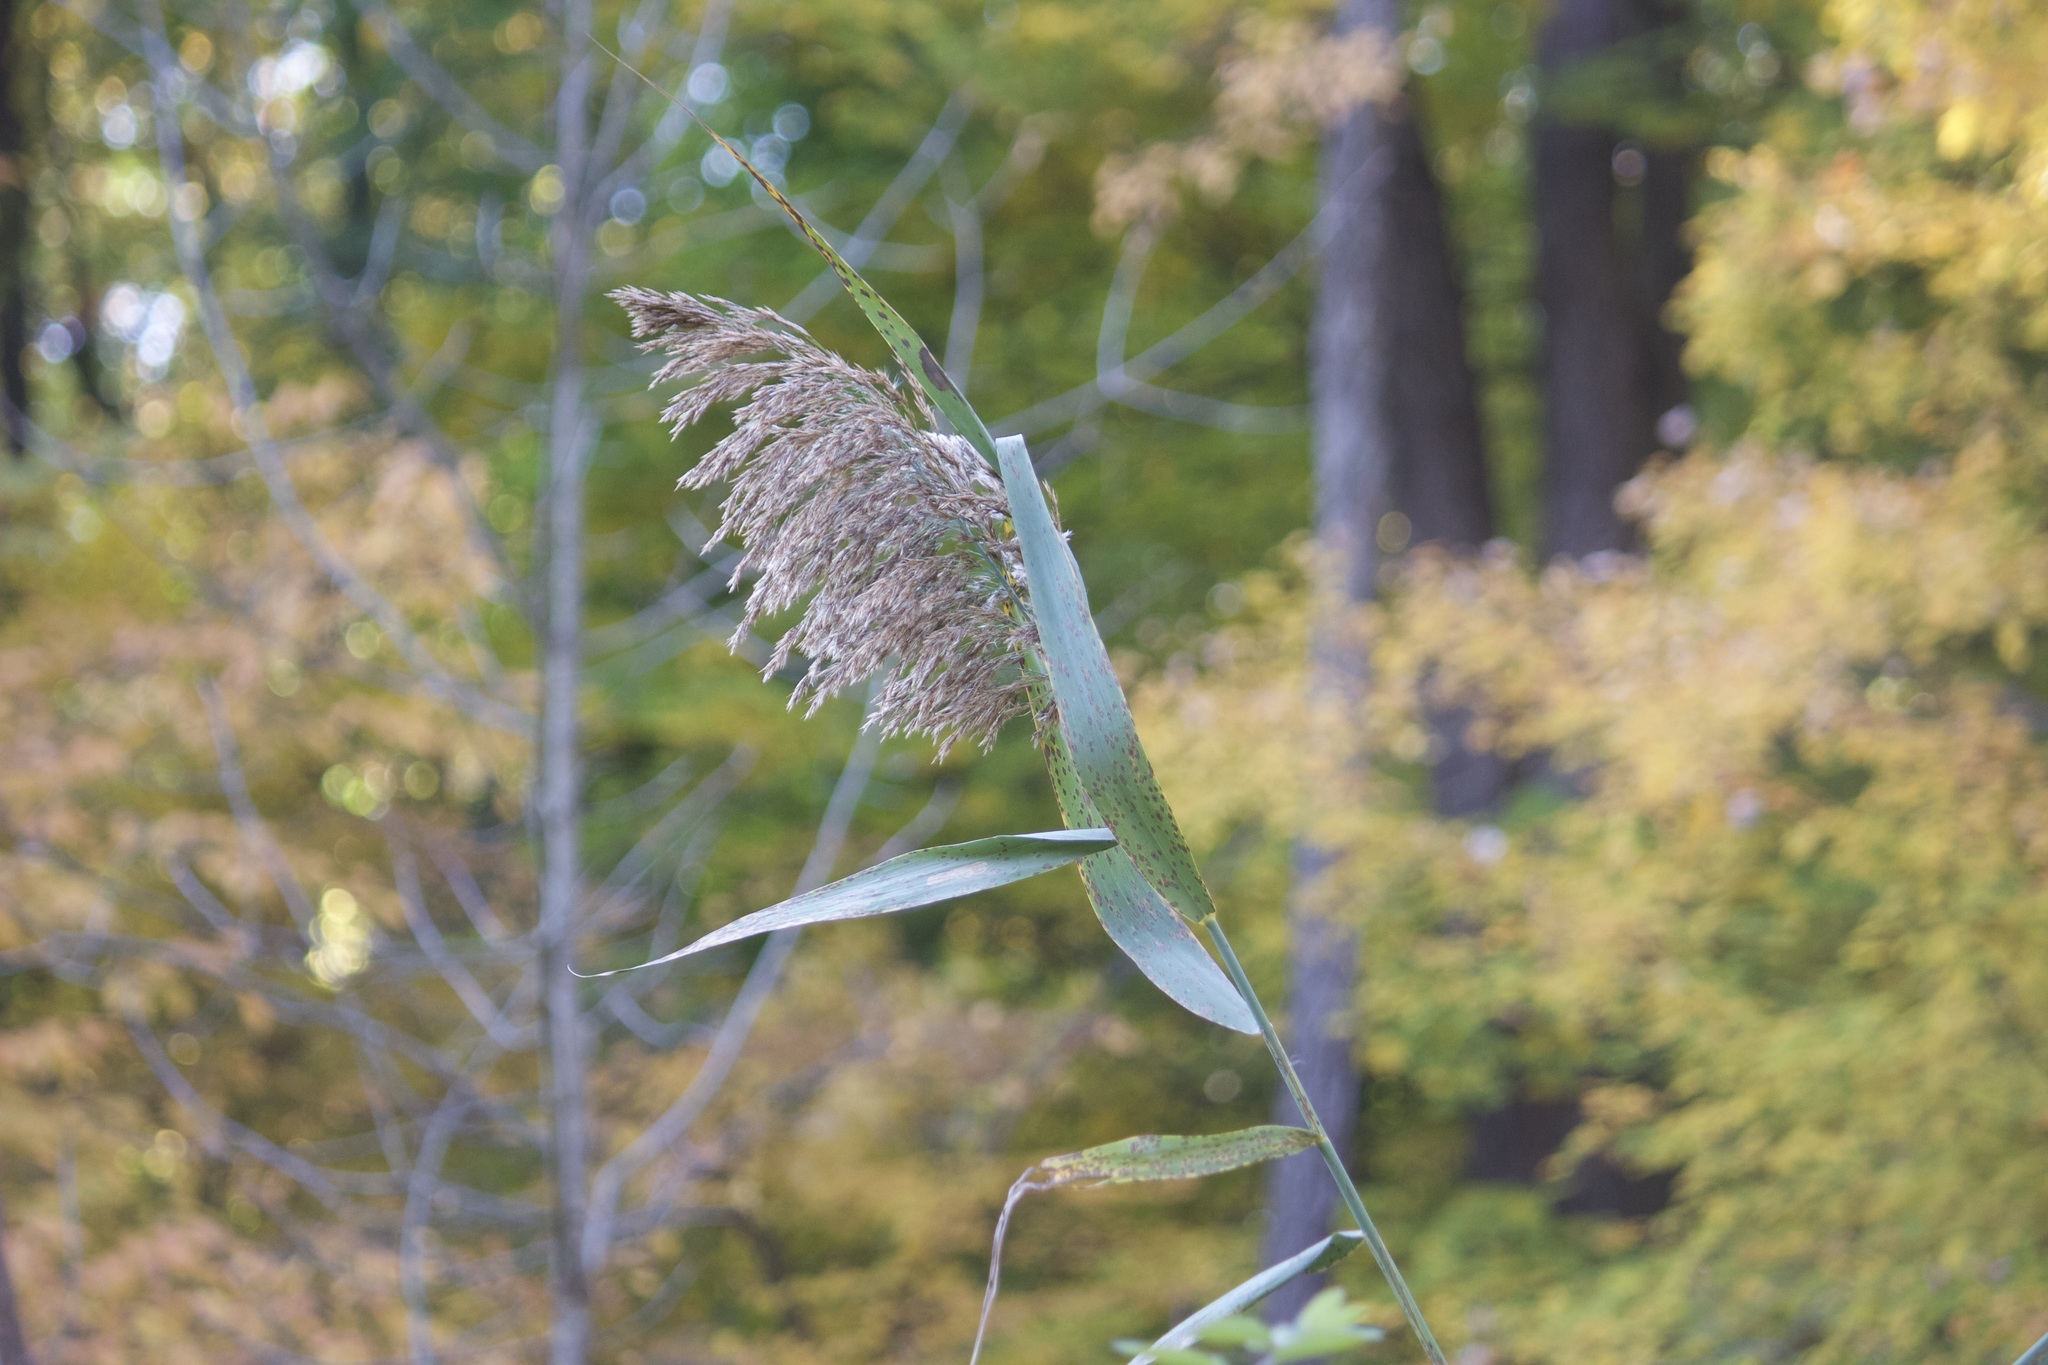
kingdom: Plantae
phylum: Tracheophyta
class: Liliopsida
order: Poales
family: Poaceae
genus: Phragmites
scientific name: Phragmites australis
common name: Common reed
